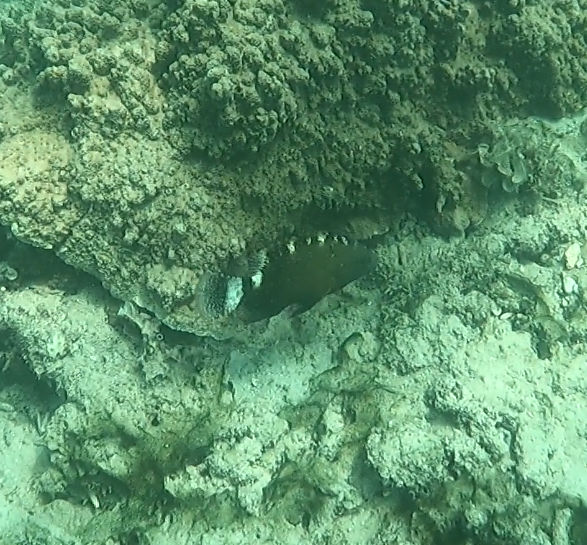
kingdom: Animalia
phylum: Chordata
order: Perciformes
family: Labridae
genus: Cheilinus
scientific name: Cheilinus chlorourus
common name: Floral wrasse
